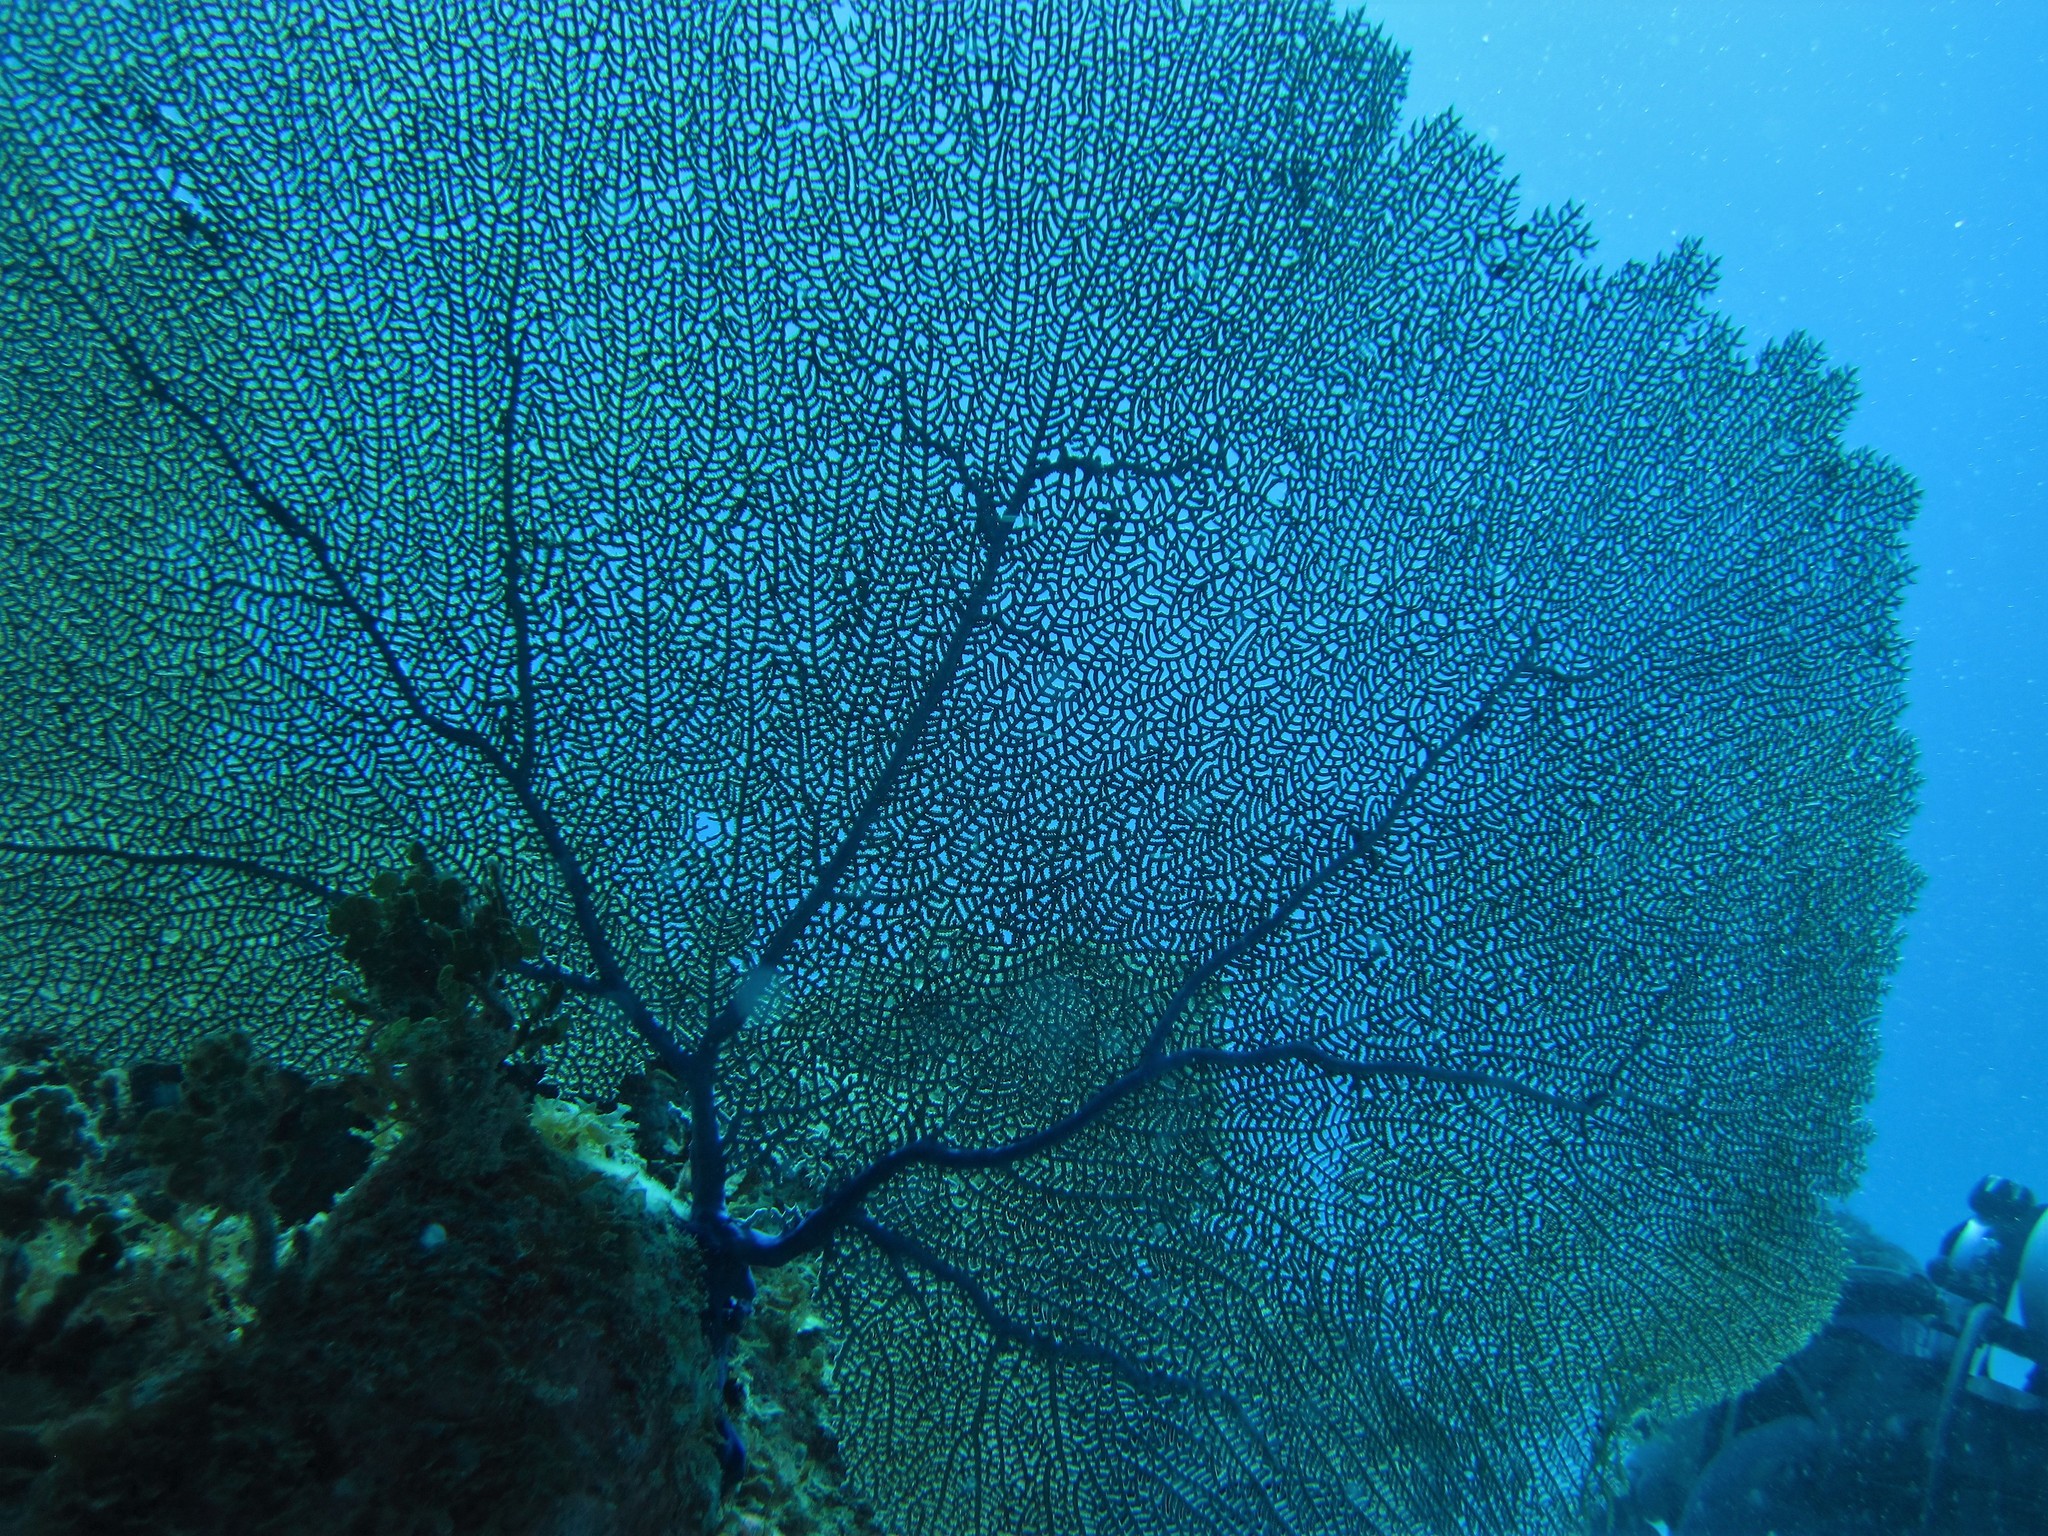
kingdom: Animalia
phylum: Cnidaria
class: Anthozoa
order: Malacalcyonacea
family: Gorgoniidae
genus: Gorgonia
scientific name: Gorgonia ventalina
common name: Common sea fan
